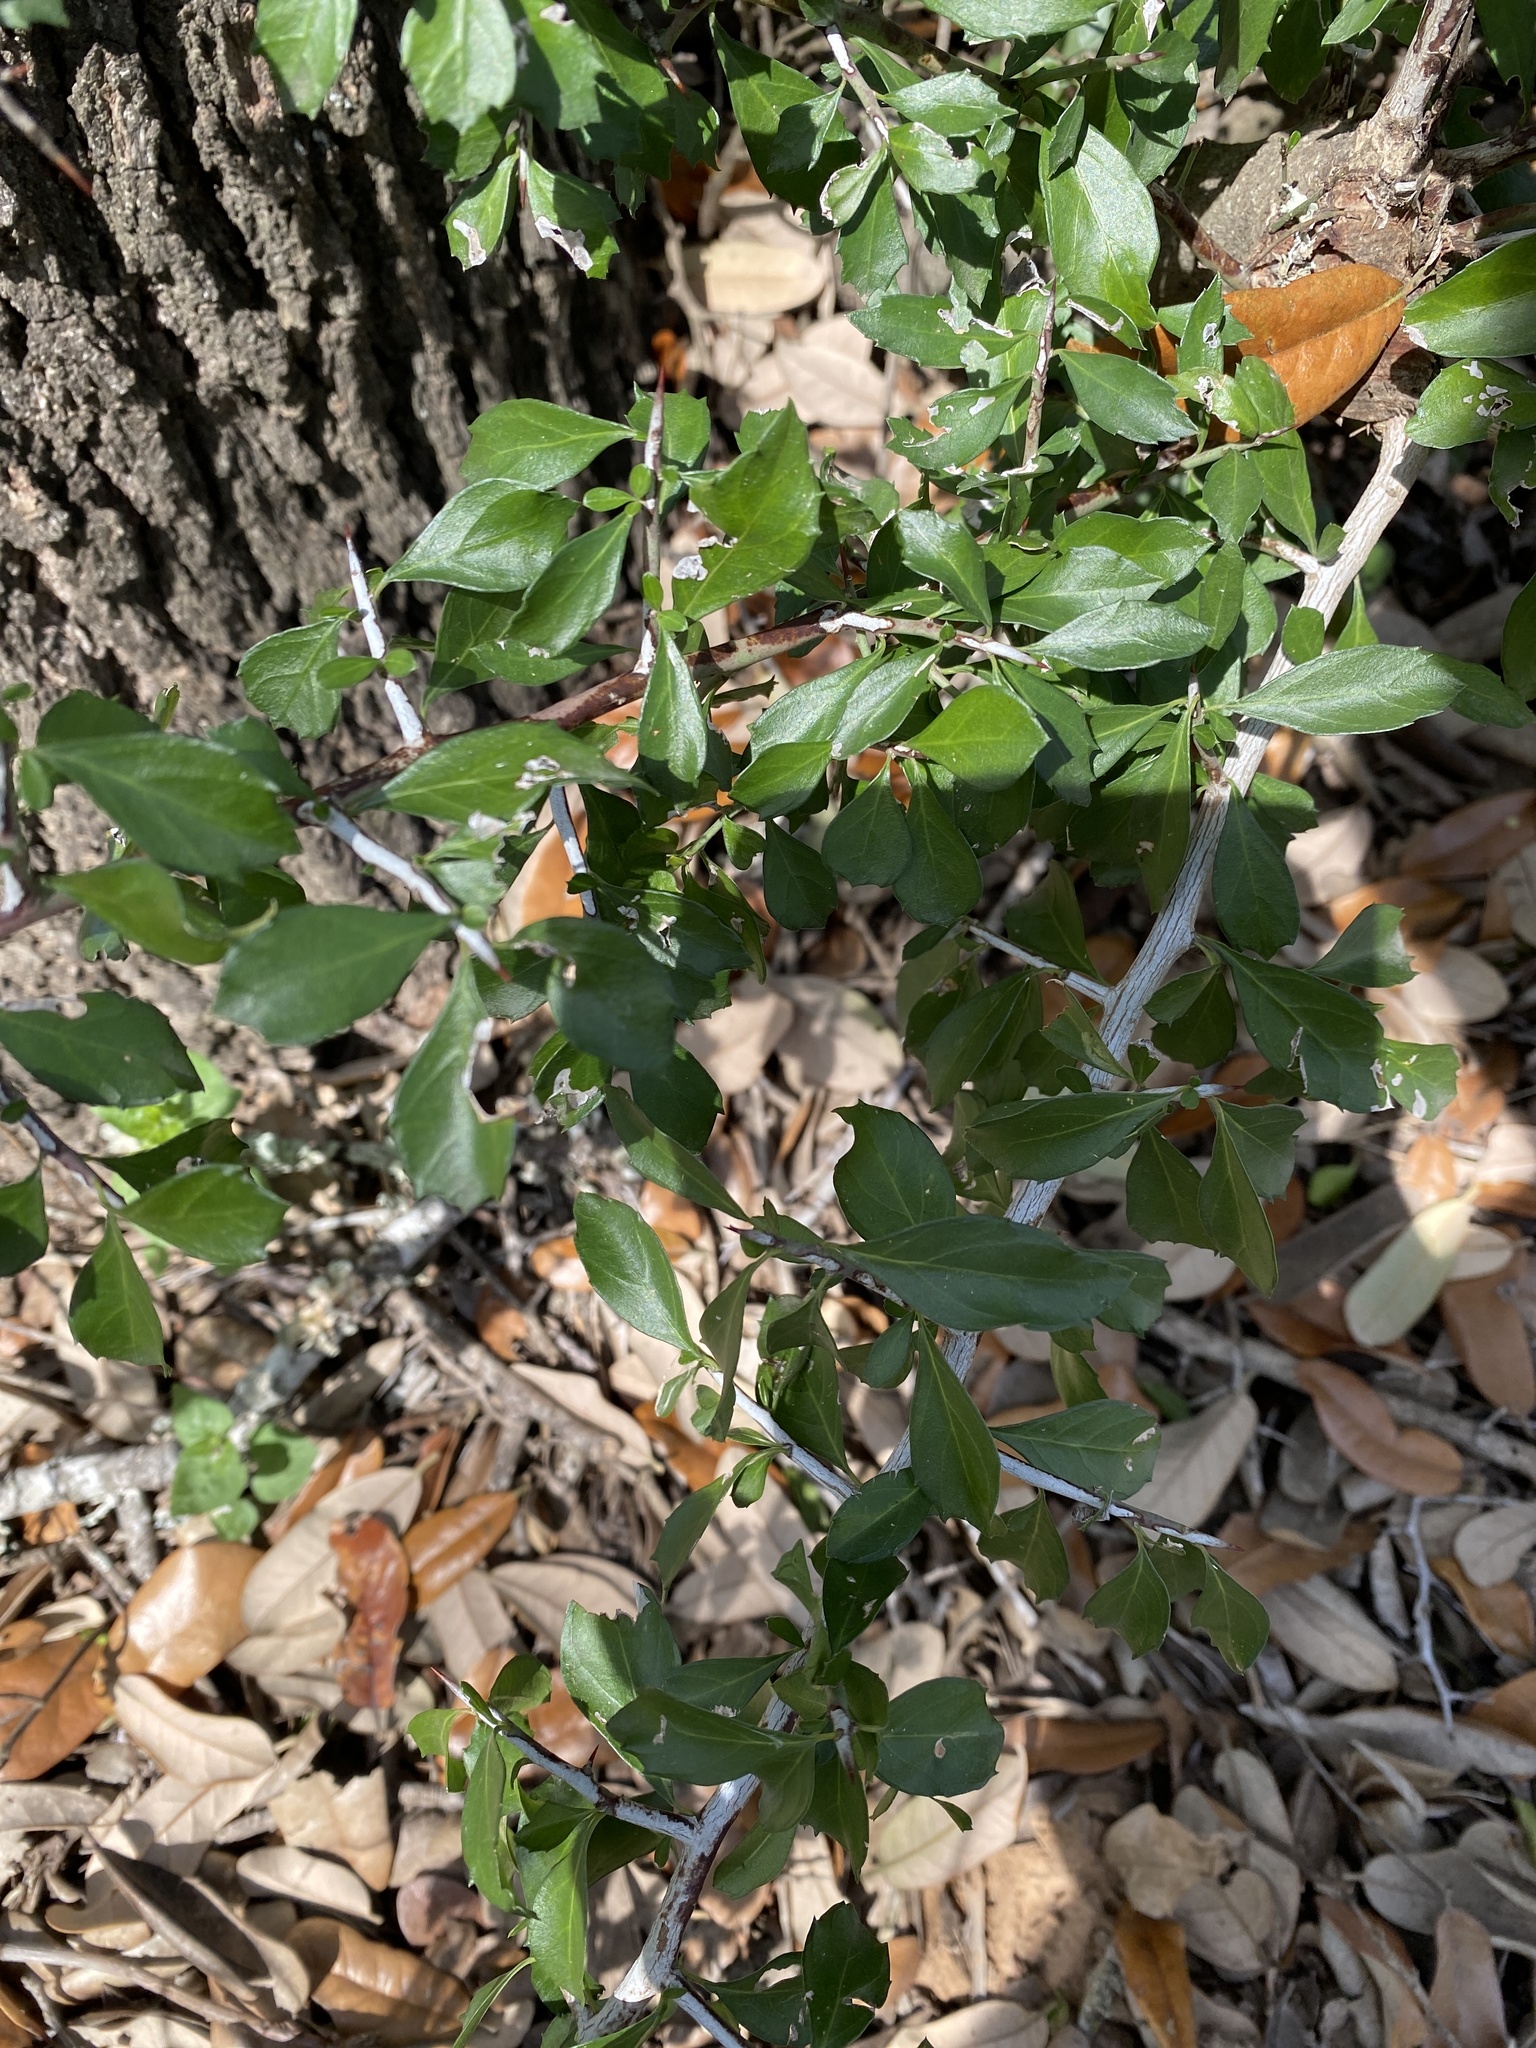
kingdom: Plantae
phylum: Tracheophyta
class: Magnoliopsida
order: Rosales
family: Rhamnaceae
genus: Condalia
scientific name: Condalia hookeri
